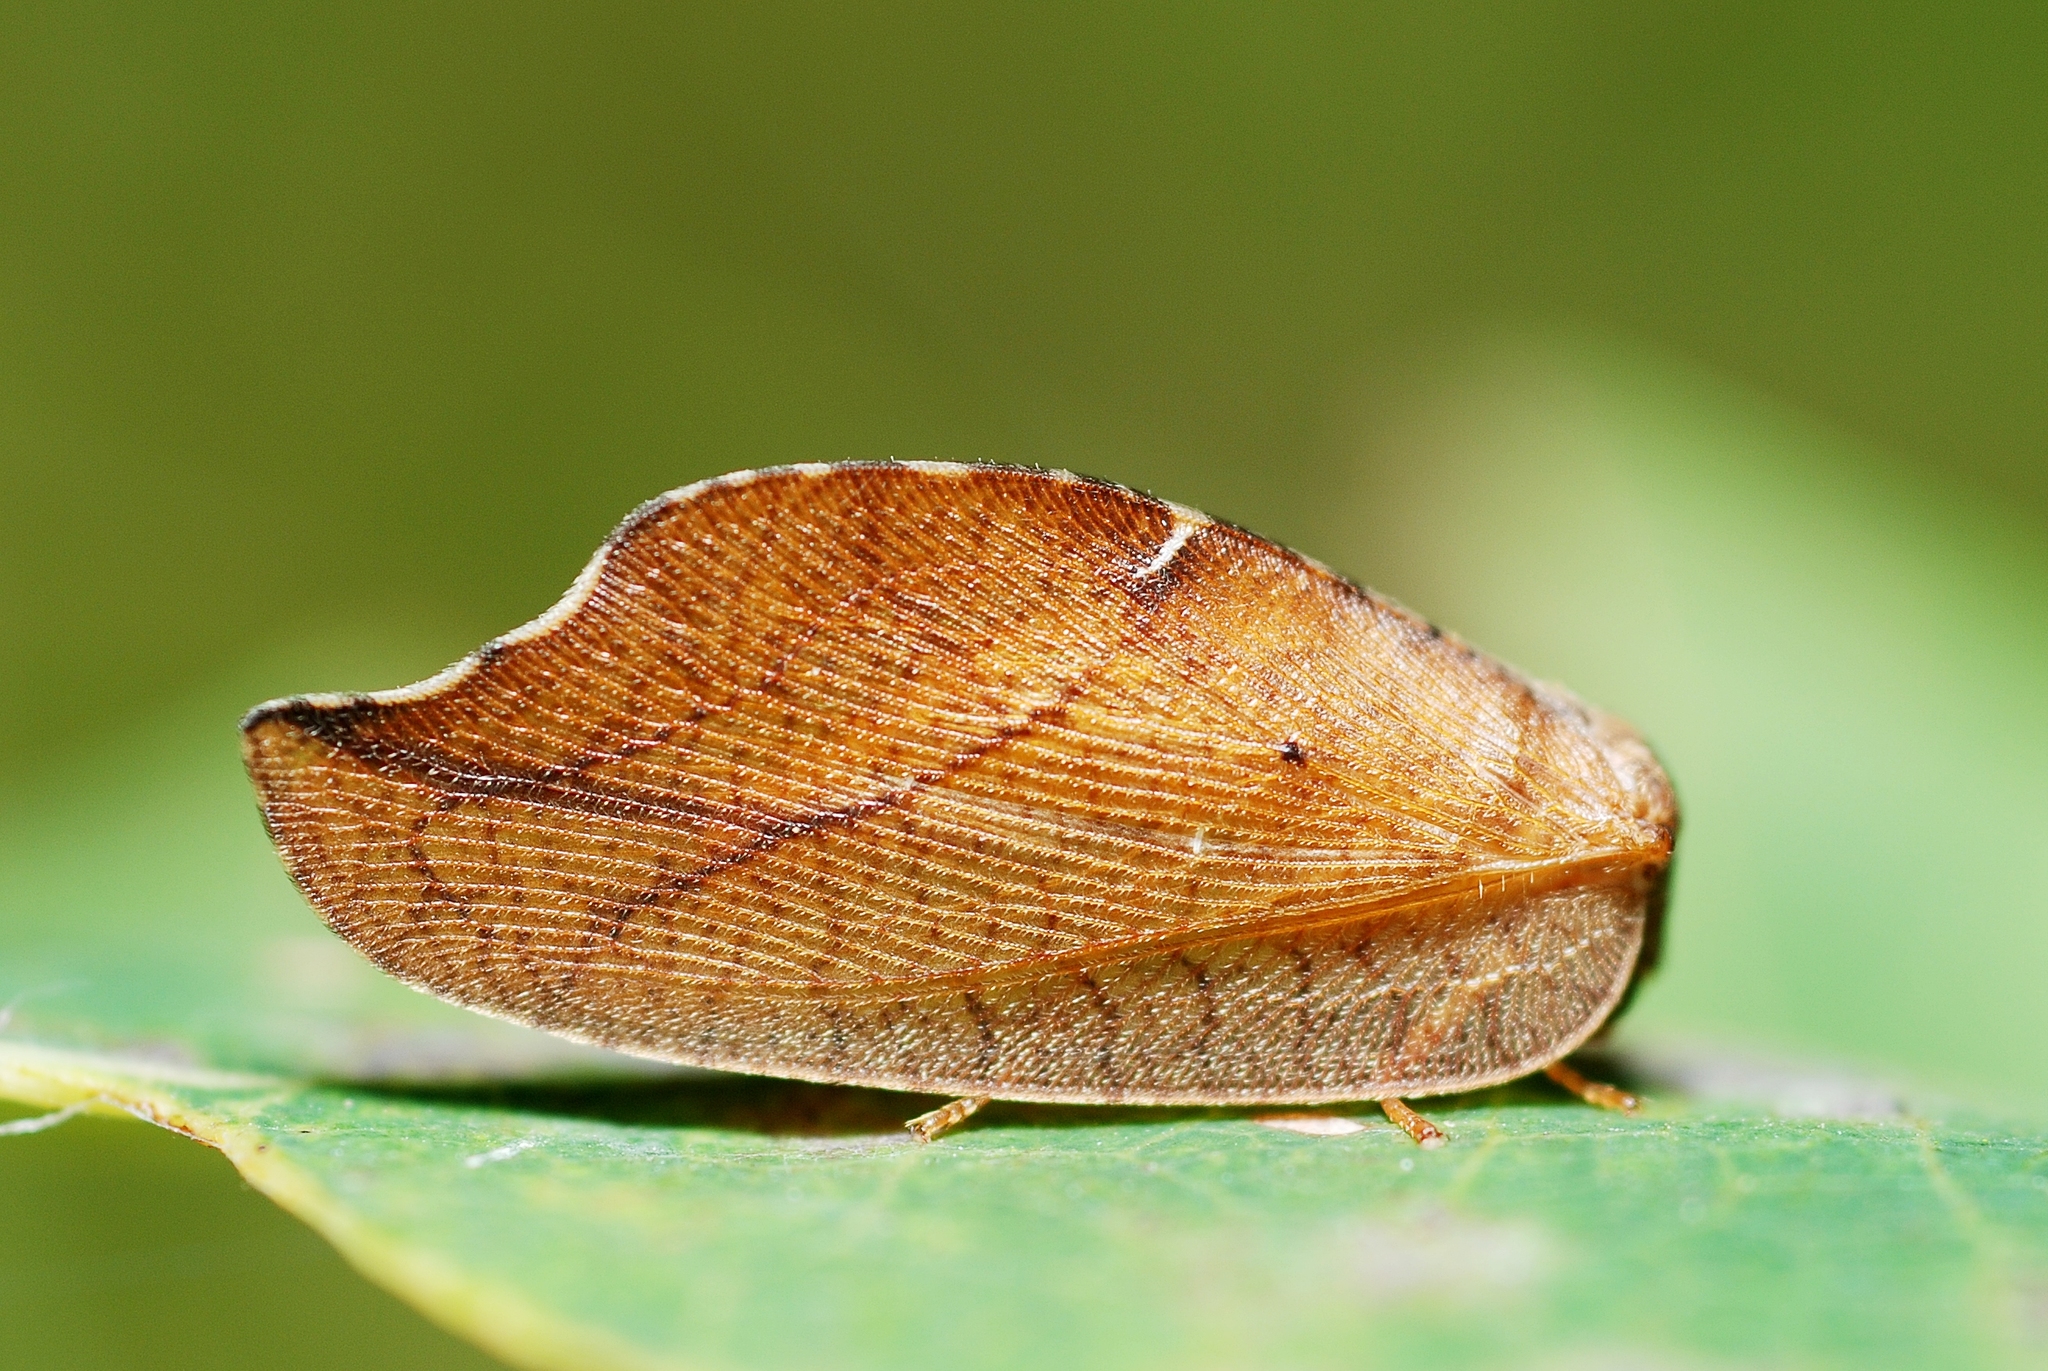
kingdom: Animalia
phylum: Arthropoda
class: Insecta
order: Neuroptera
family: Hemerobiidae
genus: Drepanepteryx
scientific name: Drepanepteryx phalaenoides
